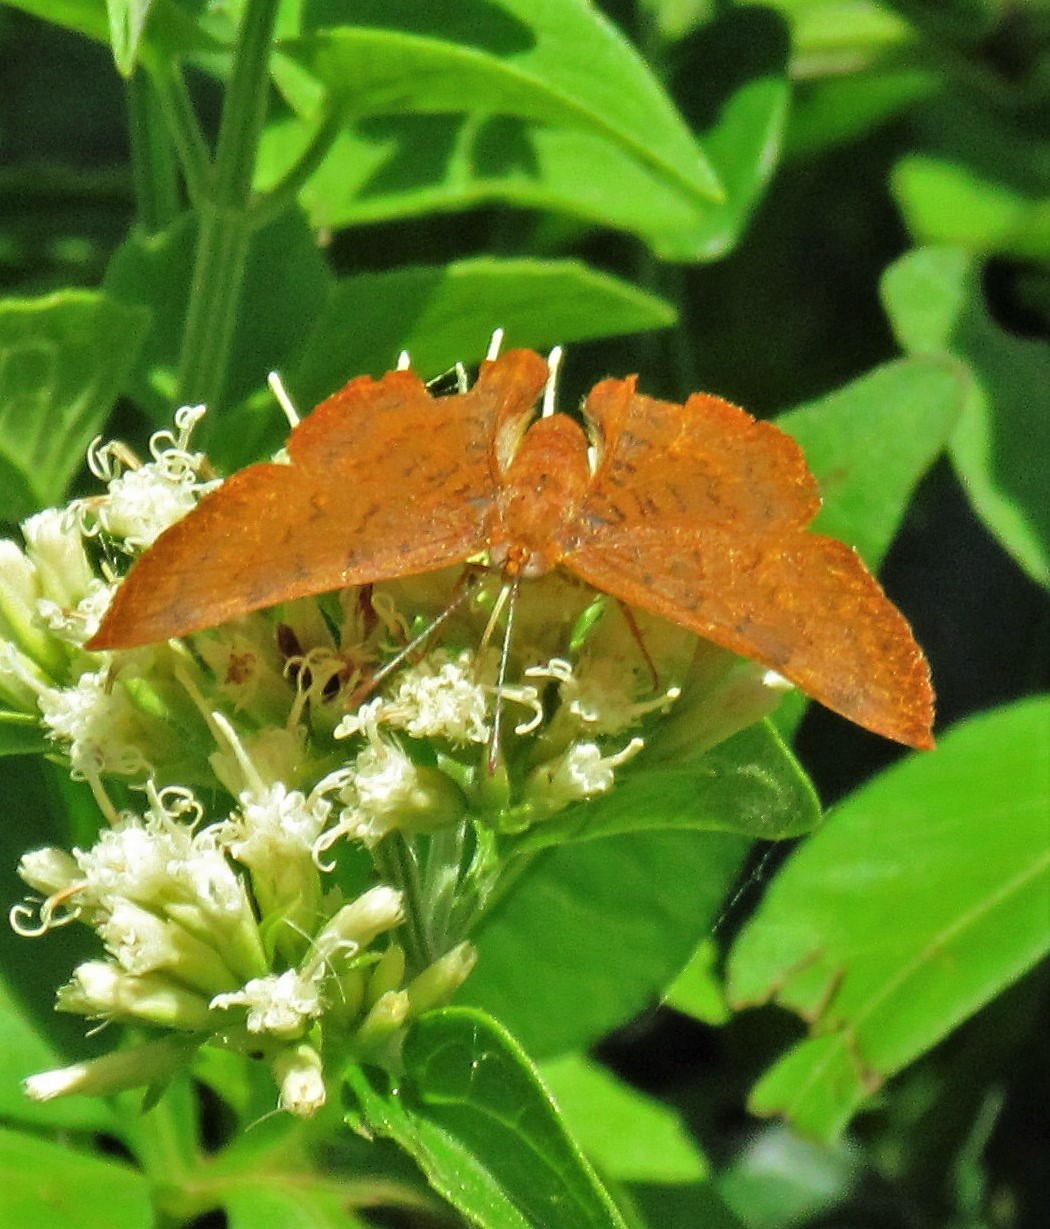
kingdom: Animalia
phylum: Arthropoda
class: Insecta
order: Lepidoptera
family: Lycaenidae
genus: Emesis
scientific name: Emesis russula
